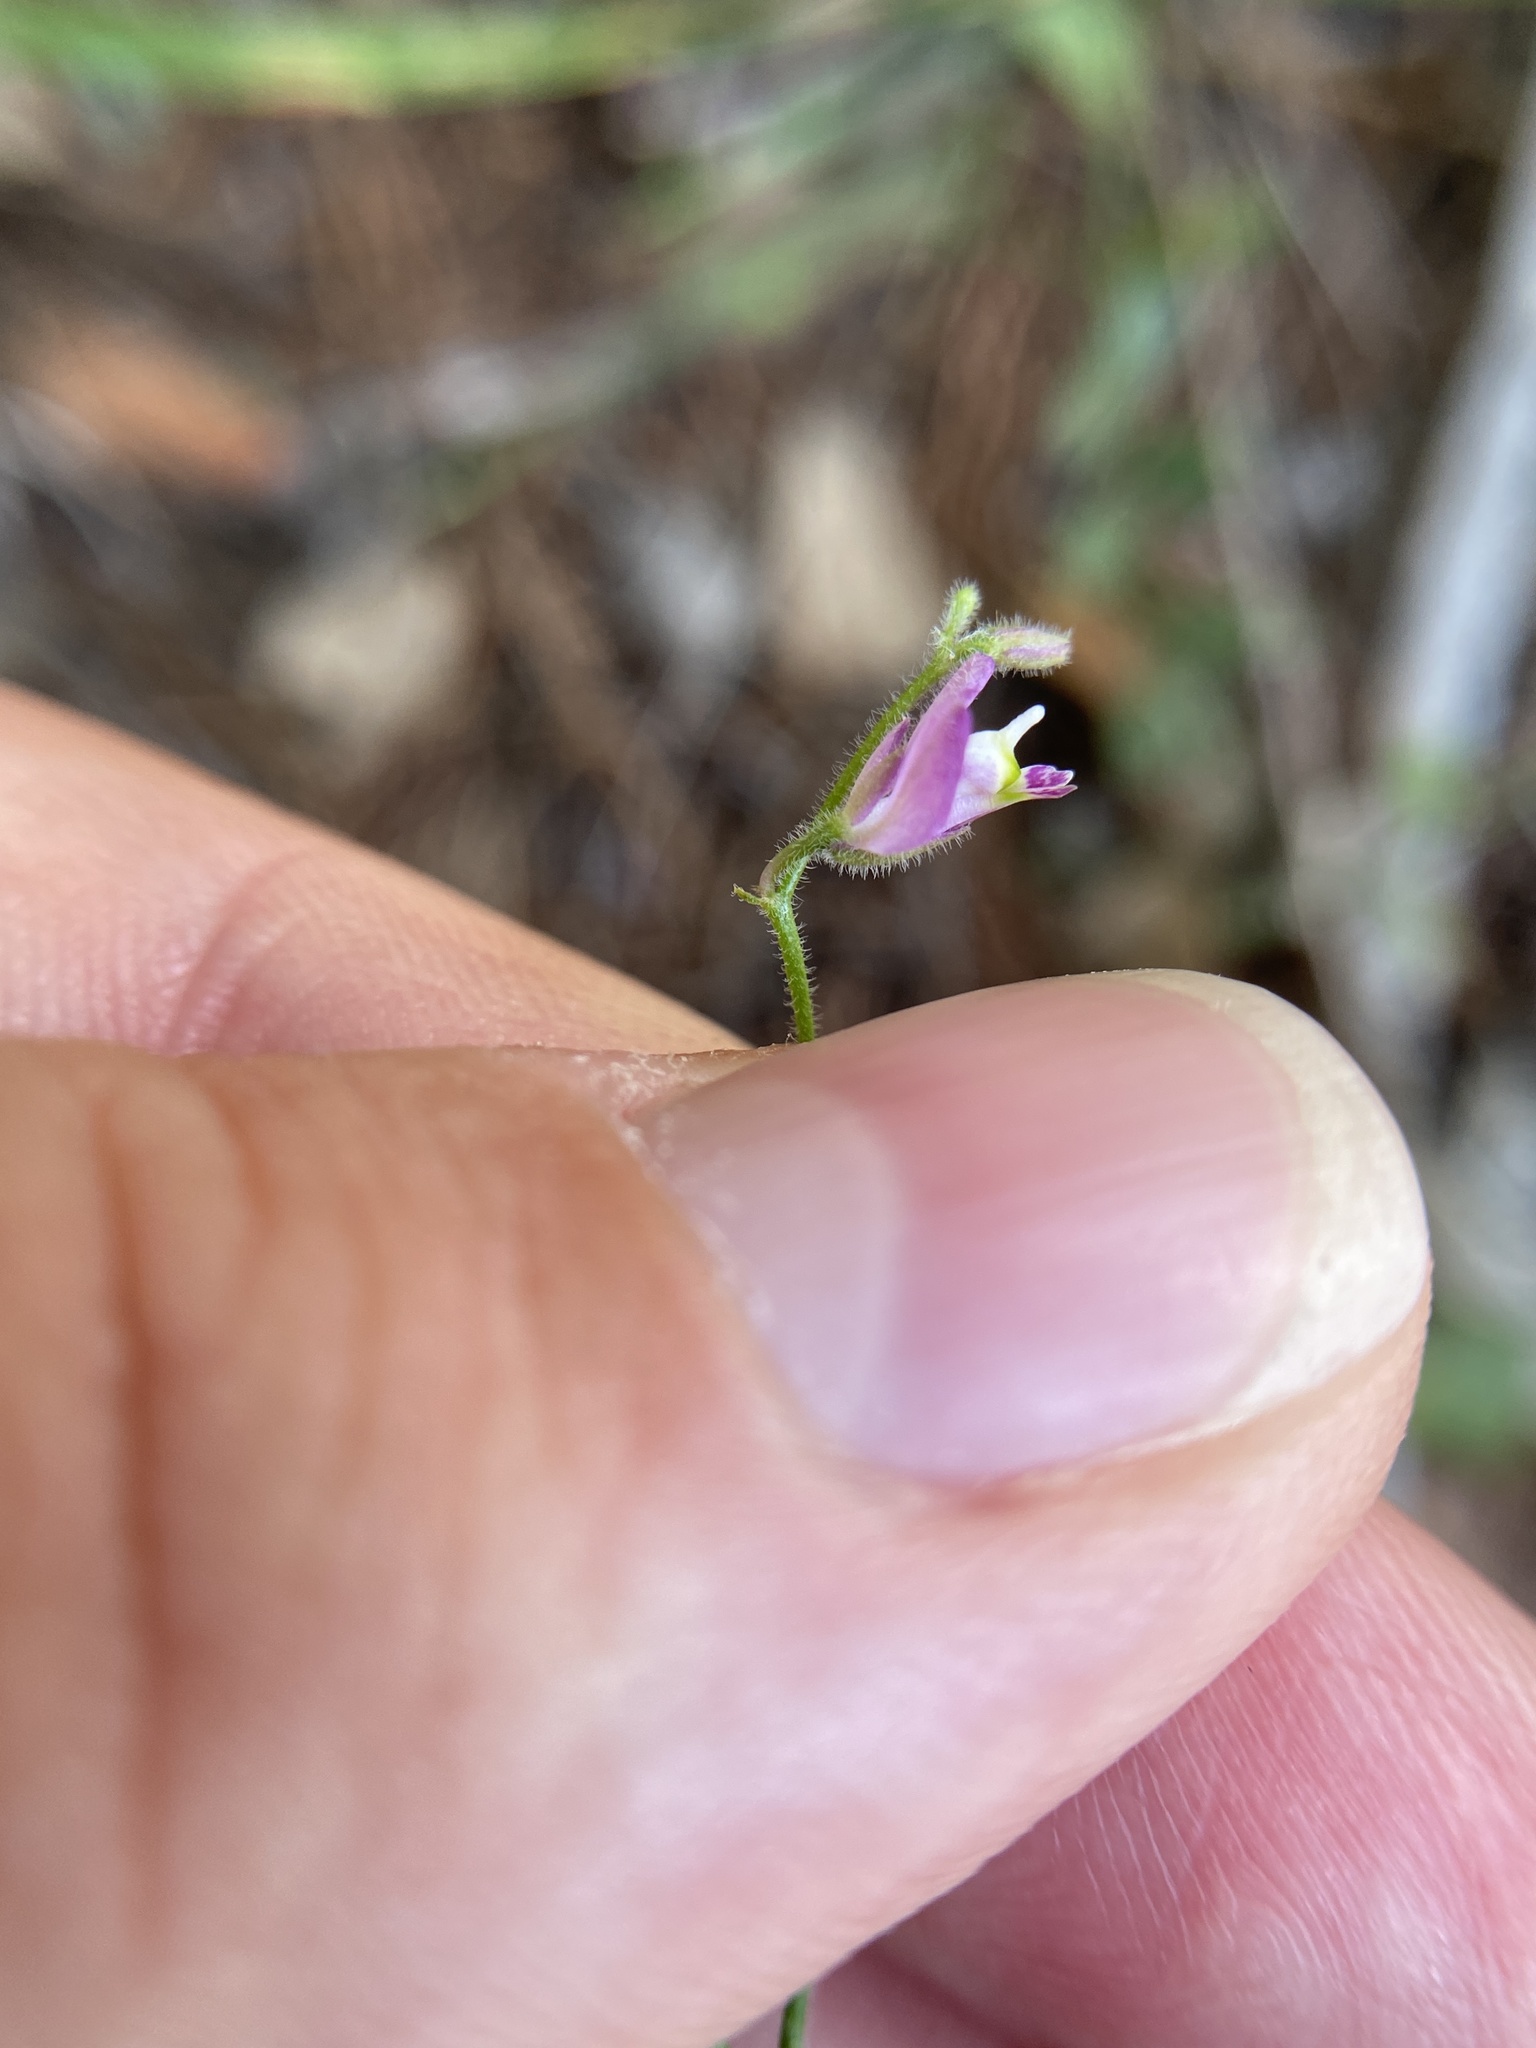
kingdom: Plantae
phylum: Tracheophyta
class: Magnoliopsida
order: Fabales
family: Polygalaceae
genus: Rhinotropis
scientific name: Rhinotropis lindheimeri
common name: Shrubby milkwort
